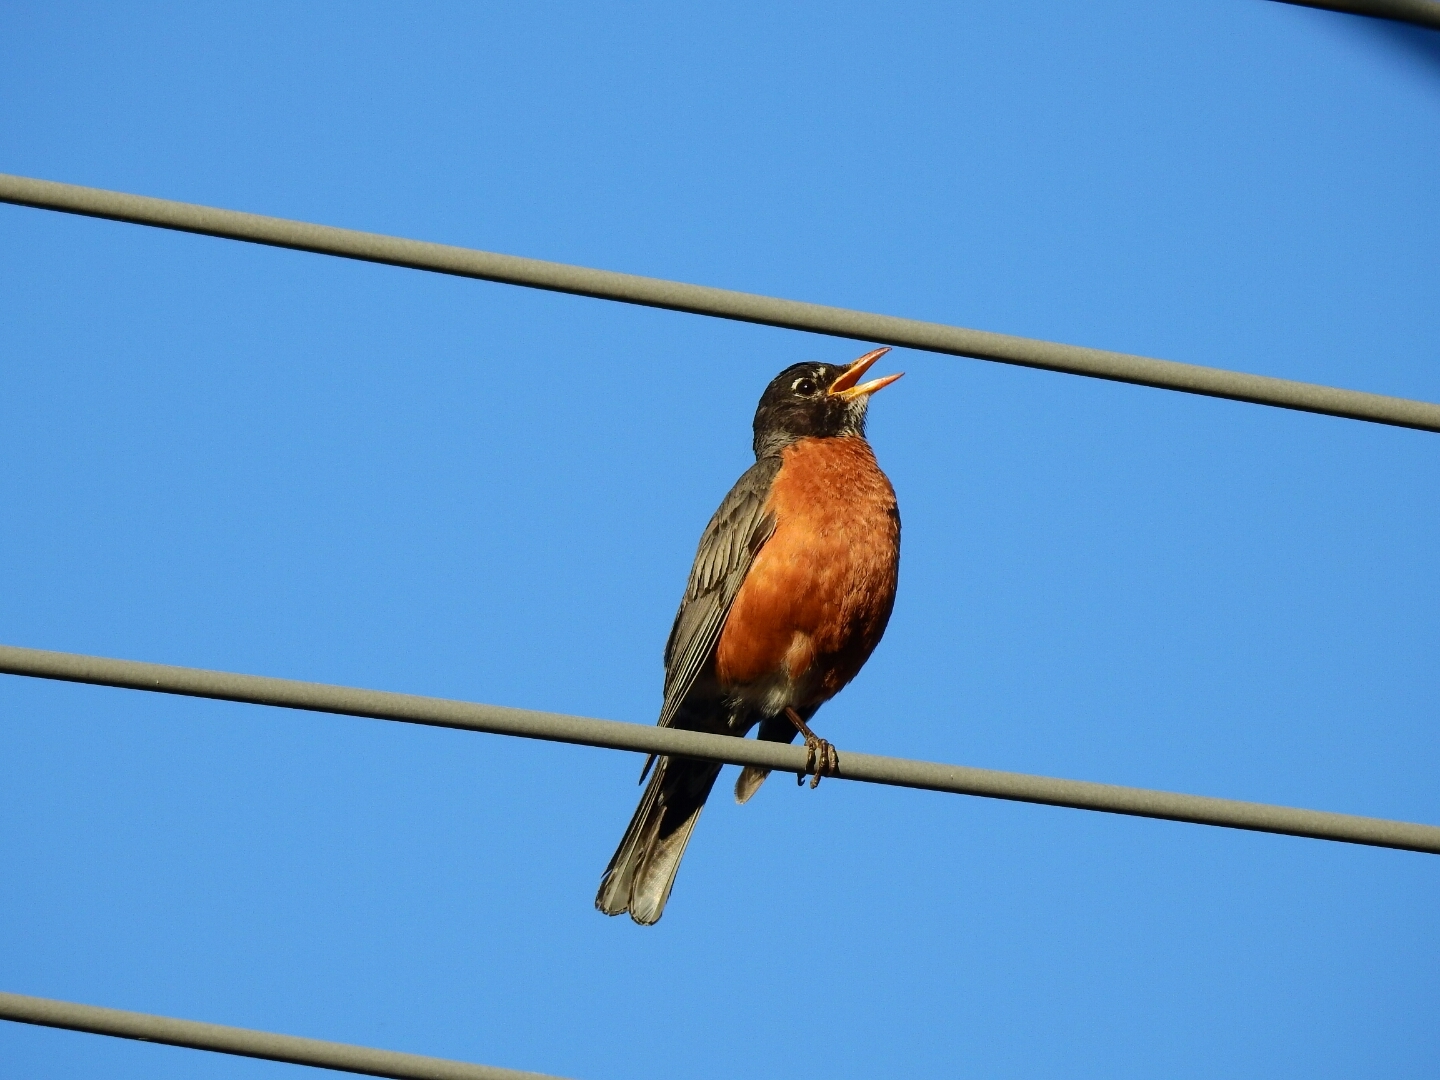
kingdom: Animalia
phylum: Chordata
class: Aves
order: Passeriformes
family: Turdidae
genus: Turdus
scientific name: Turdus migratorius
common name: American robin
